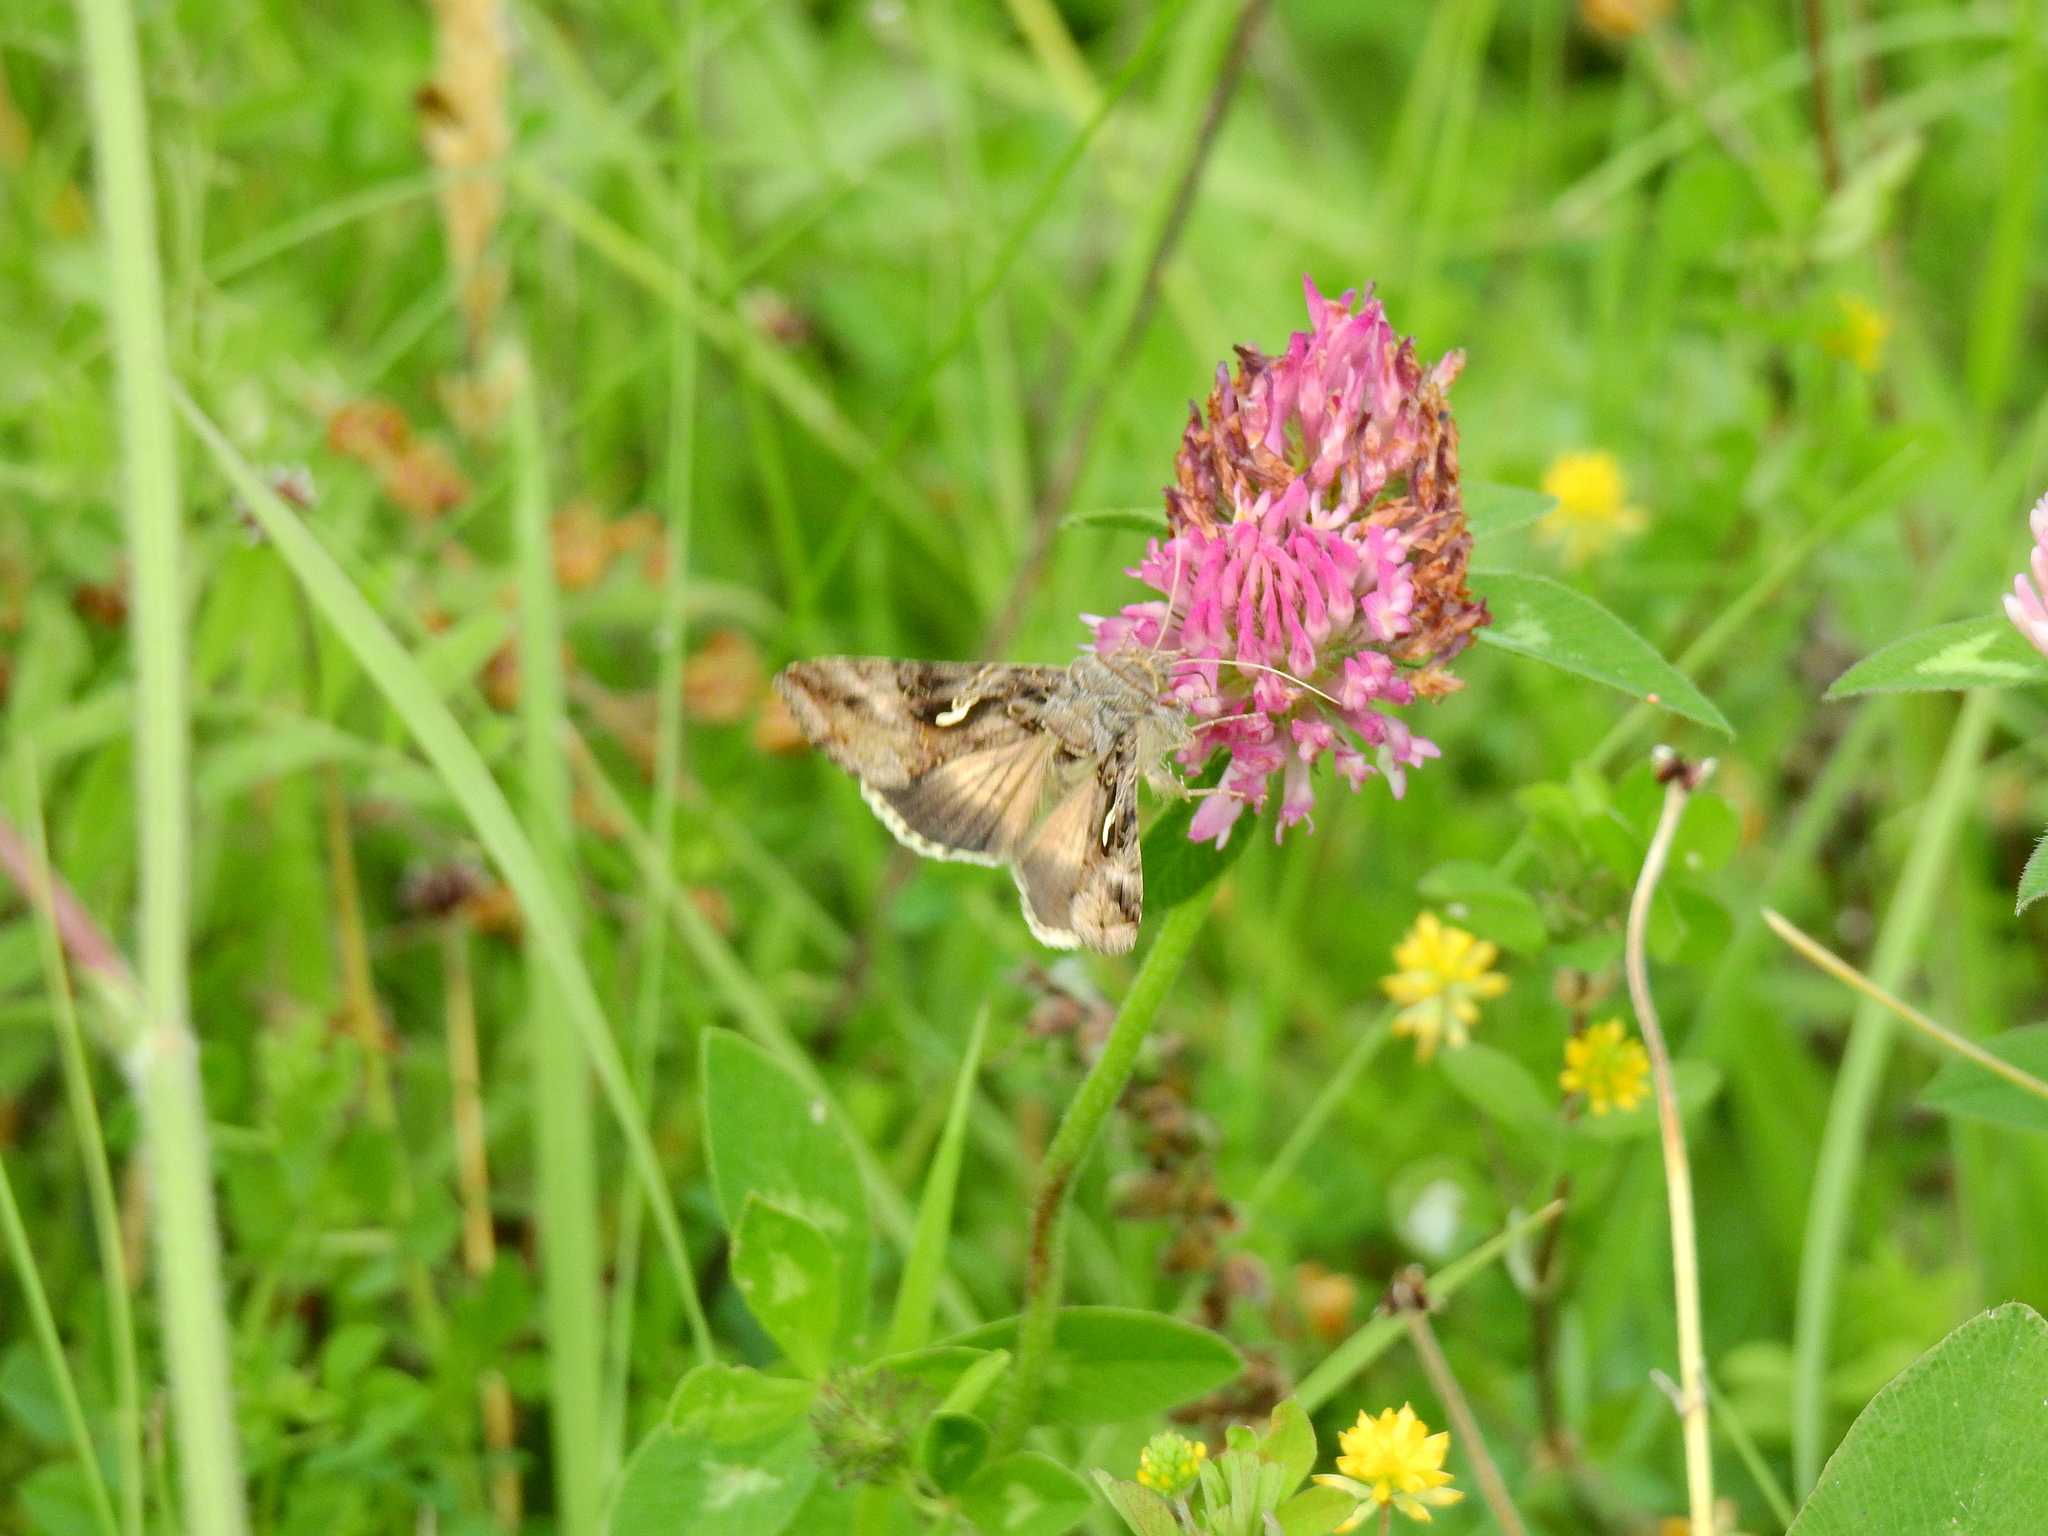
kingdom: Animalia
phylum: Arthropoda
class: Insecta
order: Lepidoptera
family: Noctuidae
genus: Autographa
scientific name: Autographa gamma
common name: Silver y
